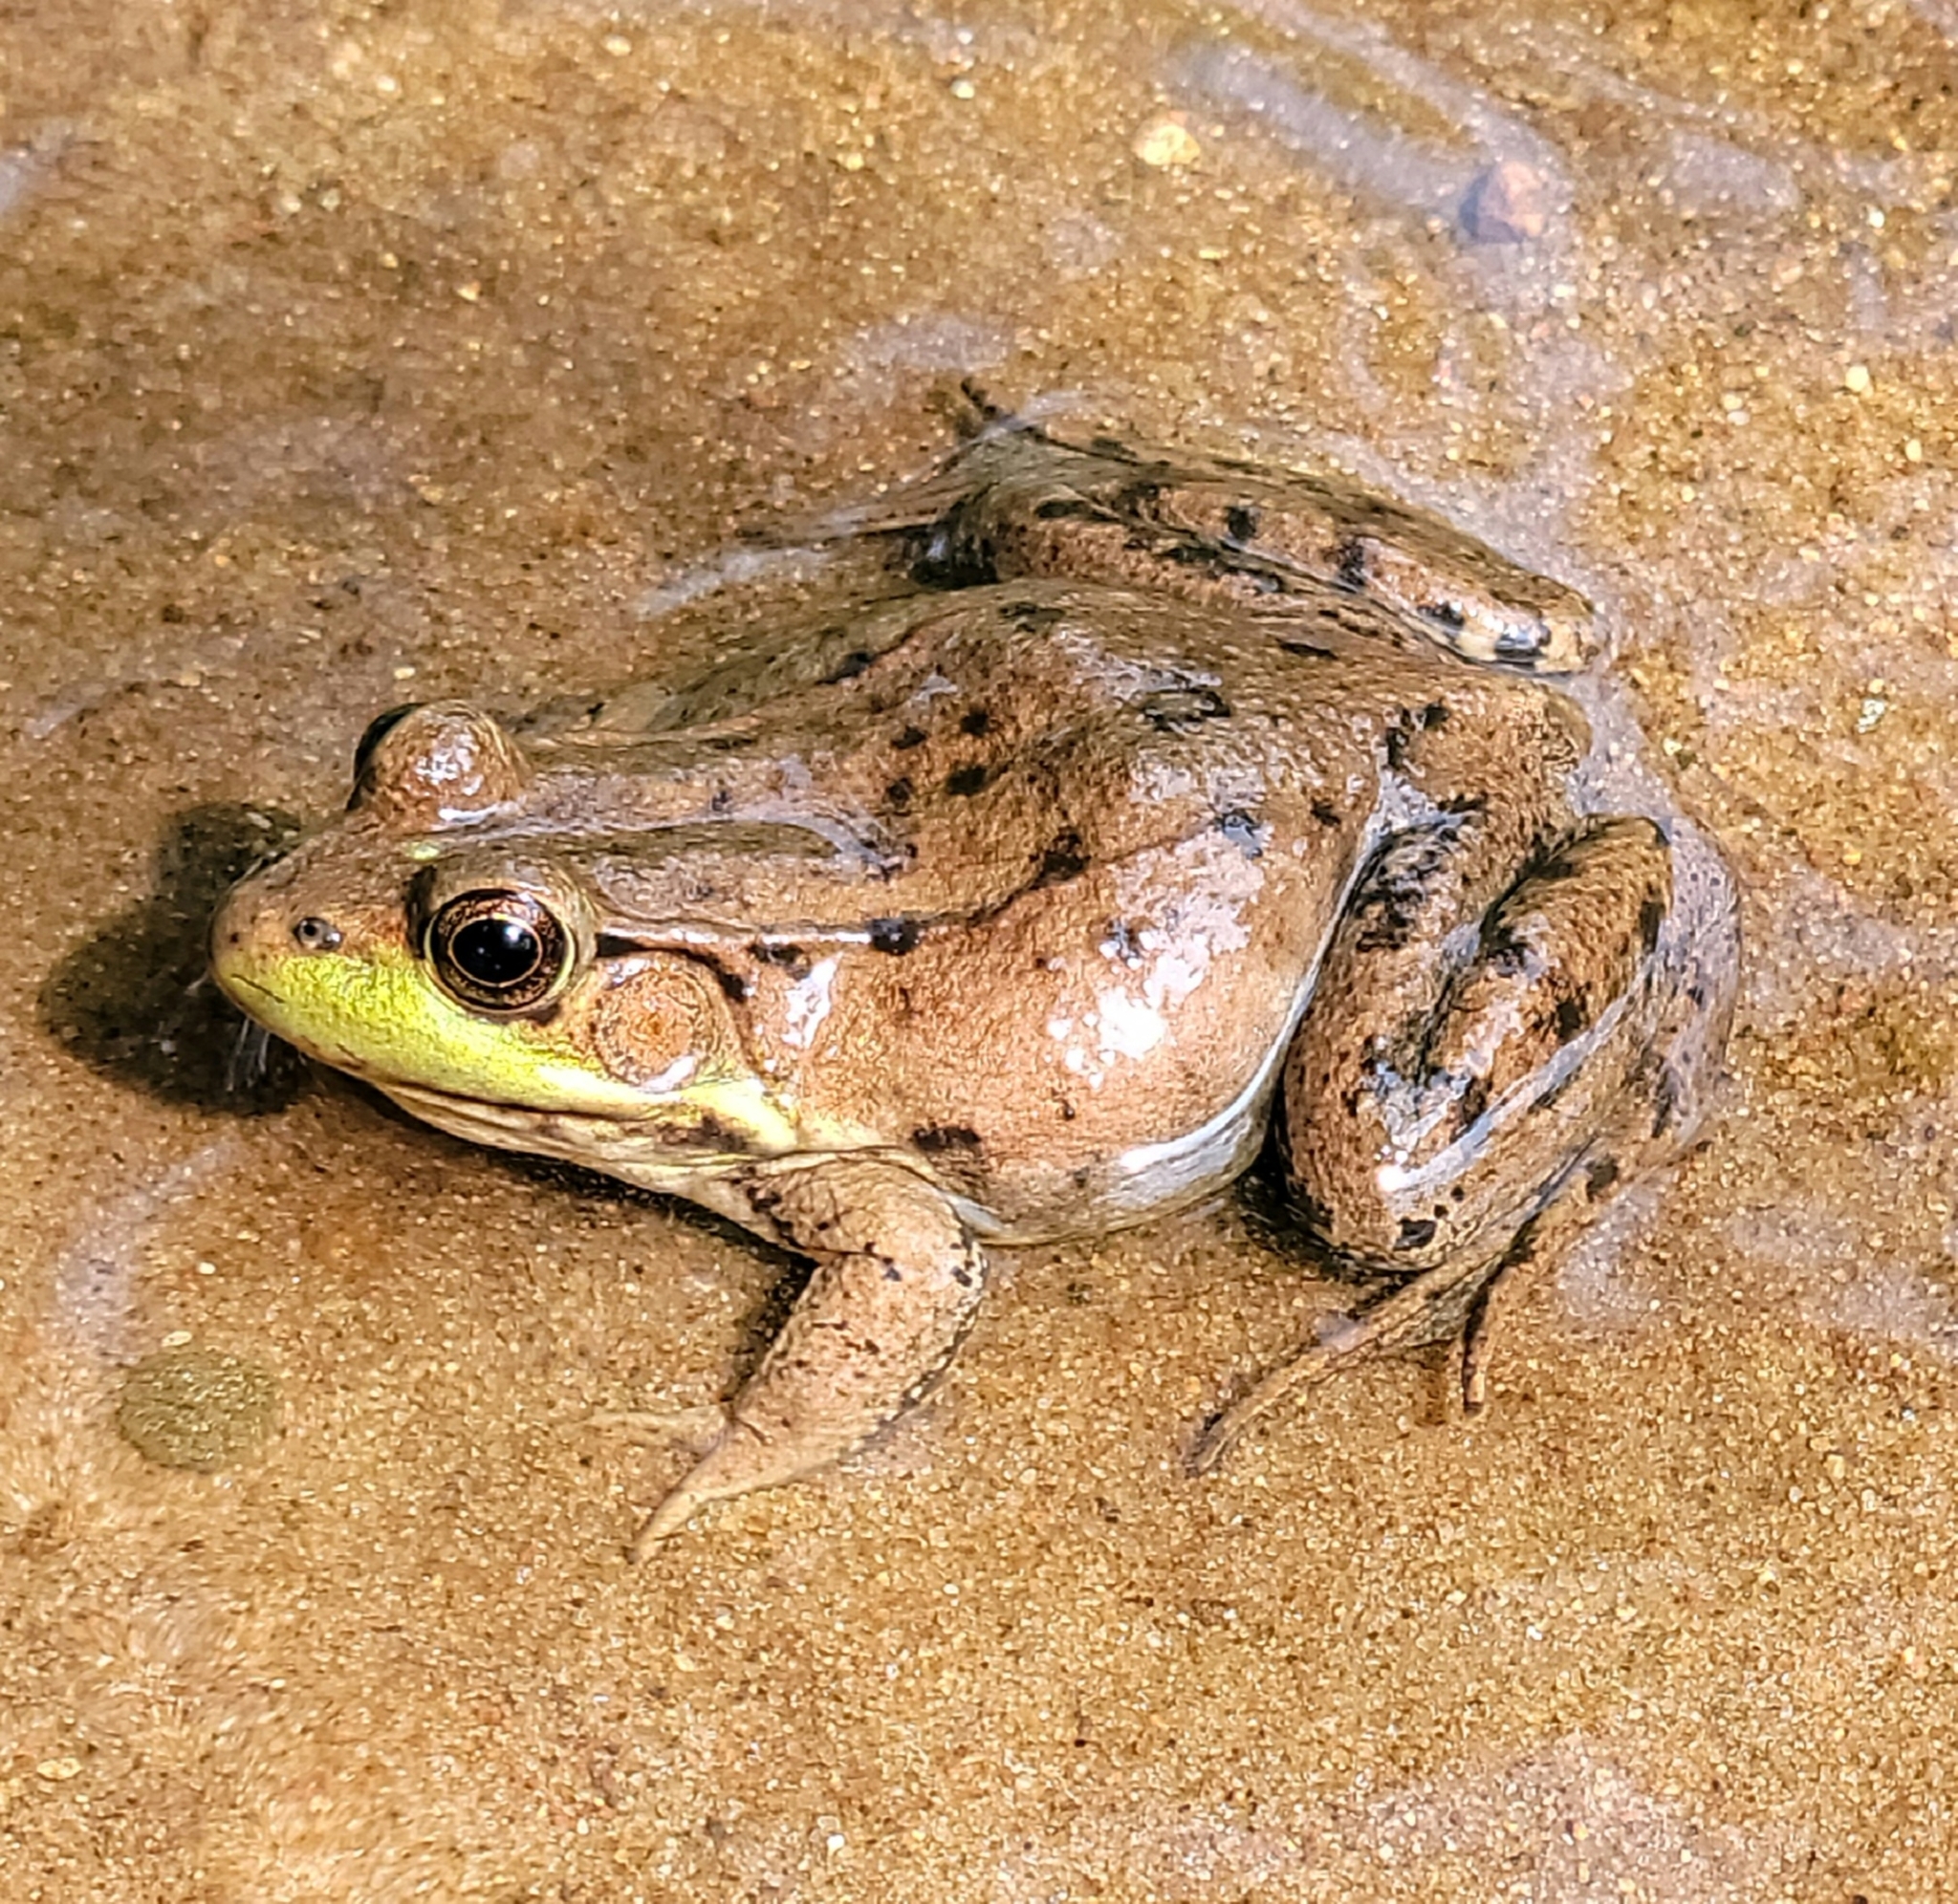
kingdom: Animalia
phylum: Chordata
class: Amphibia
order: Anura
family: Ranidae
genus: Lithobates
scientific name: Lithobates clamitans
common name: Green frog
